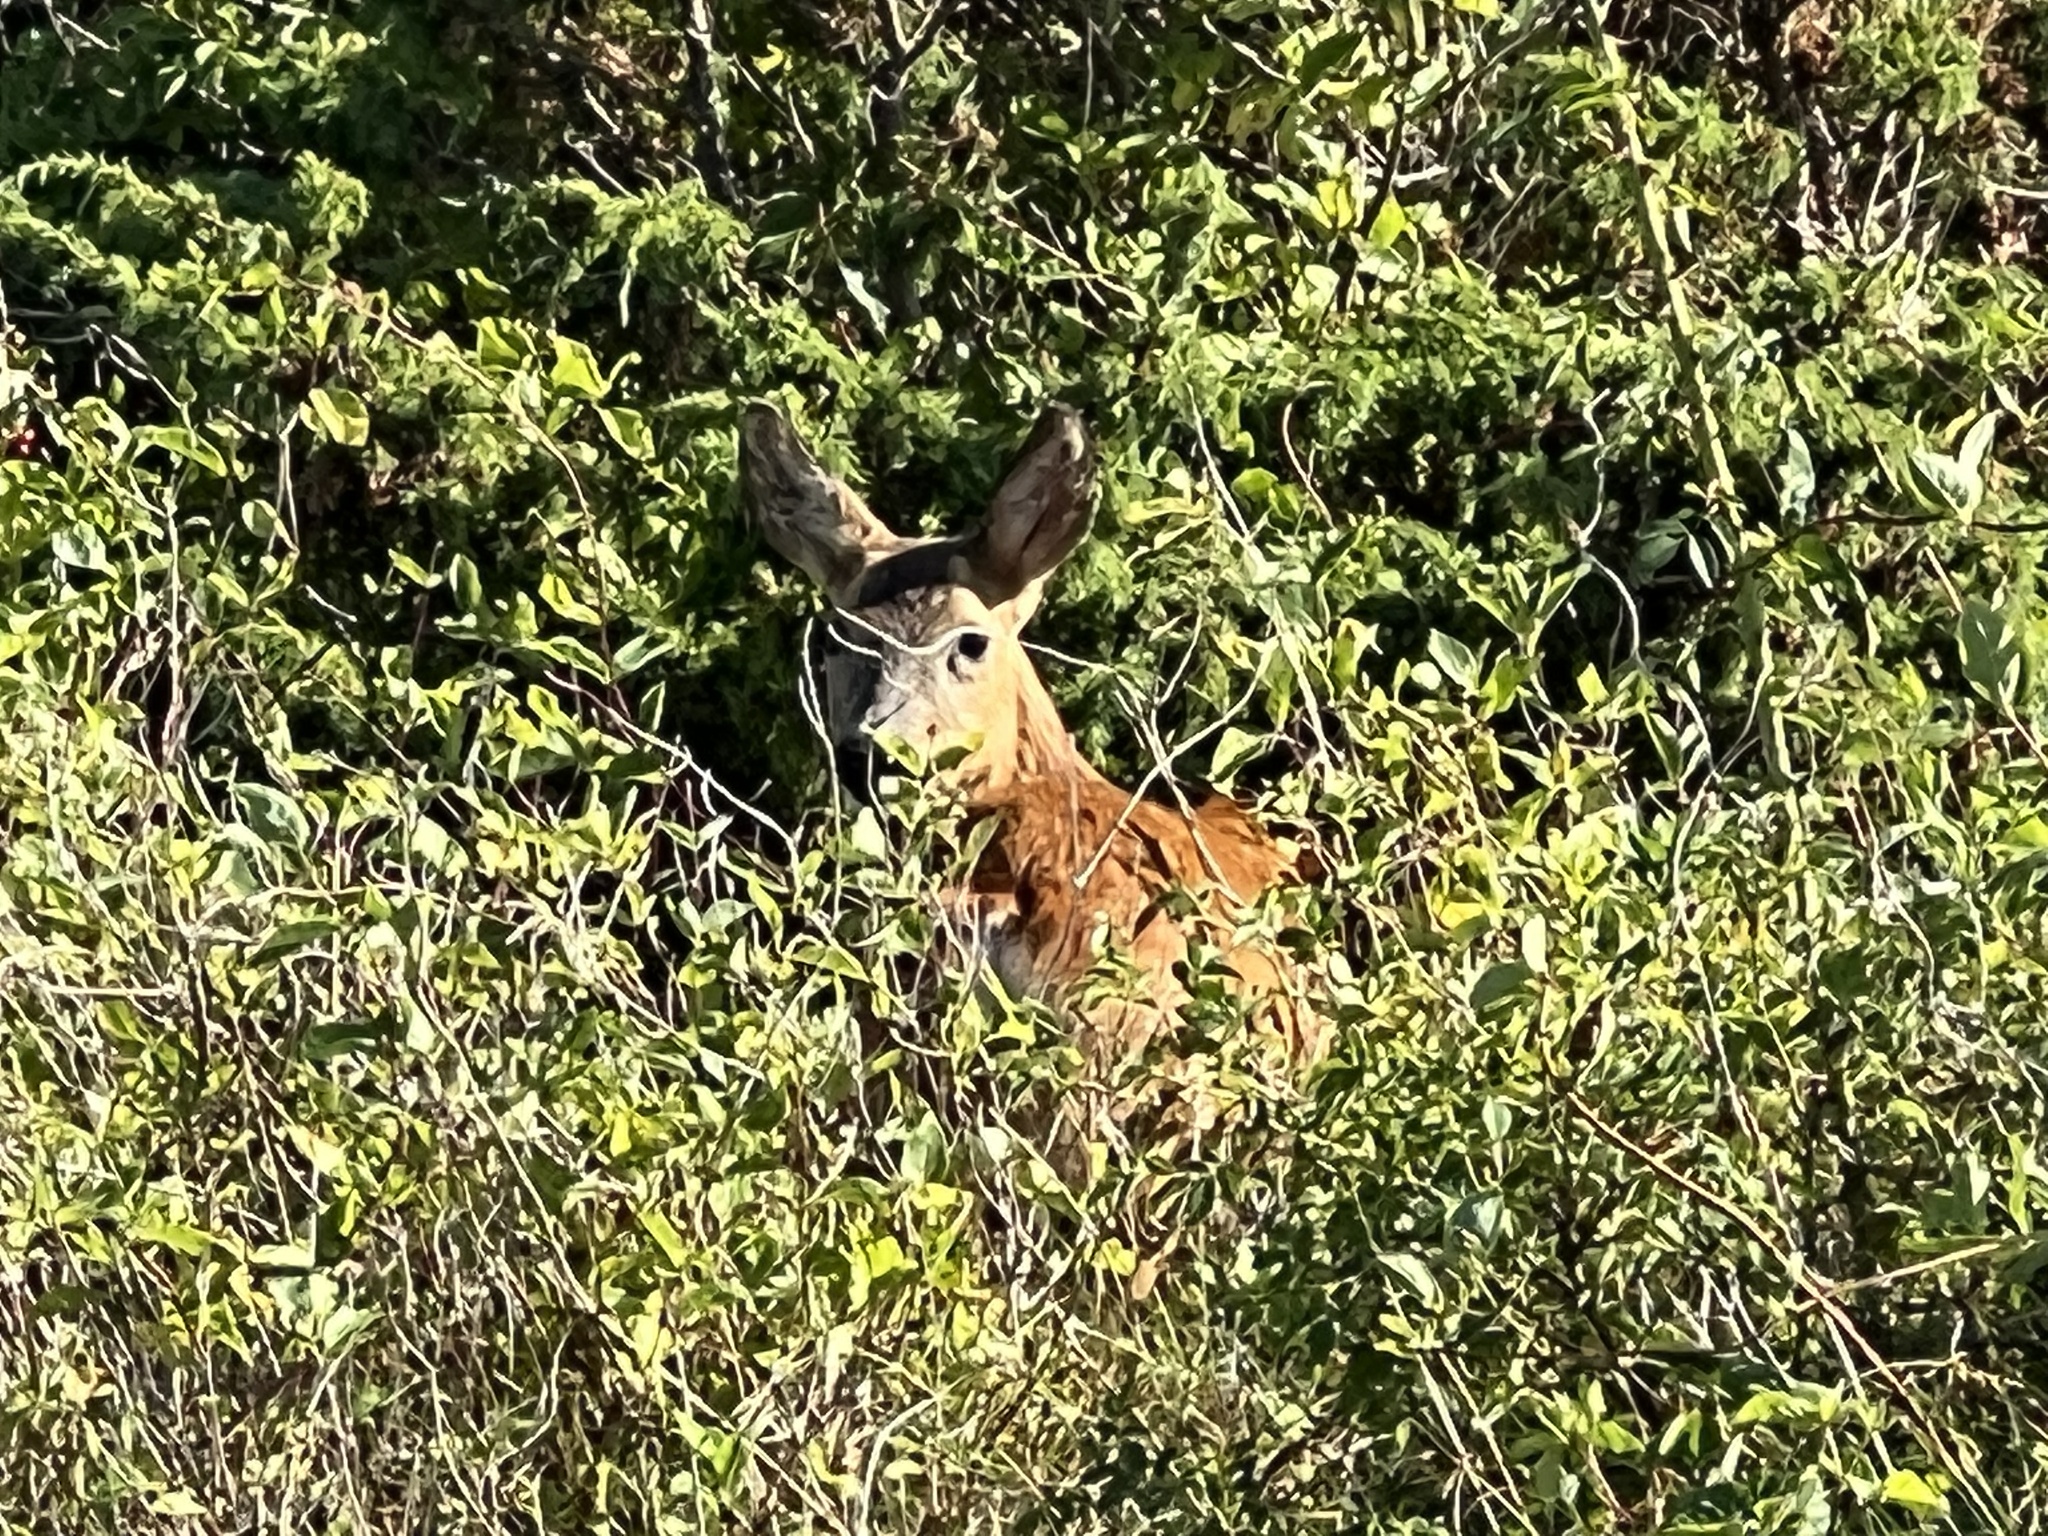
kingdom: Animalia
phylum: Chordata
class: Mammalia
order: Artiodactyla
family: Cervidae
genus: Capreolus
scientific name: Capreolus capreolus
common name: Western roe deer
